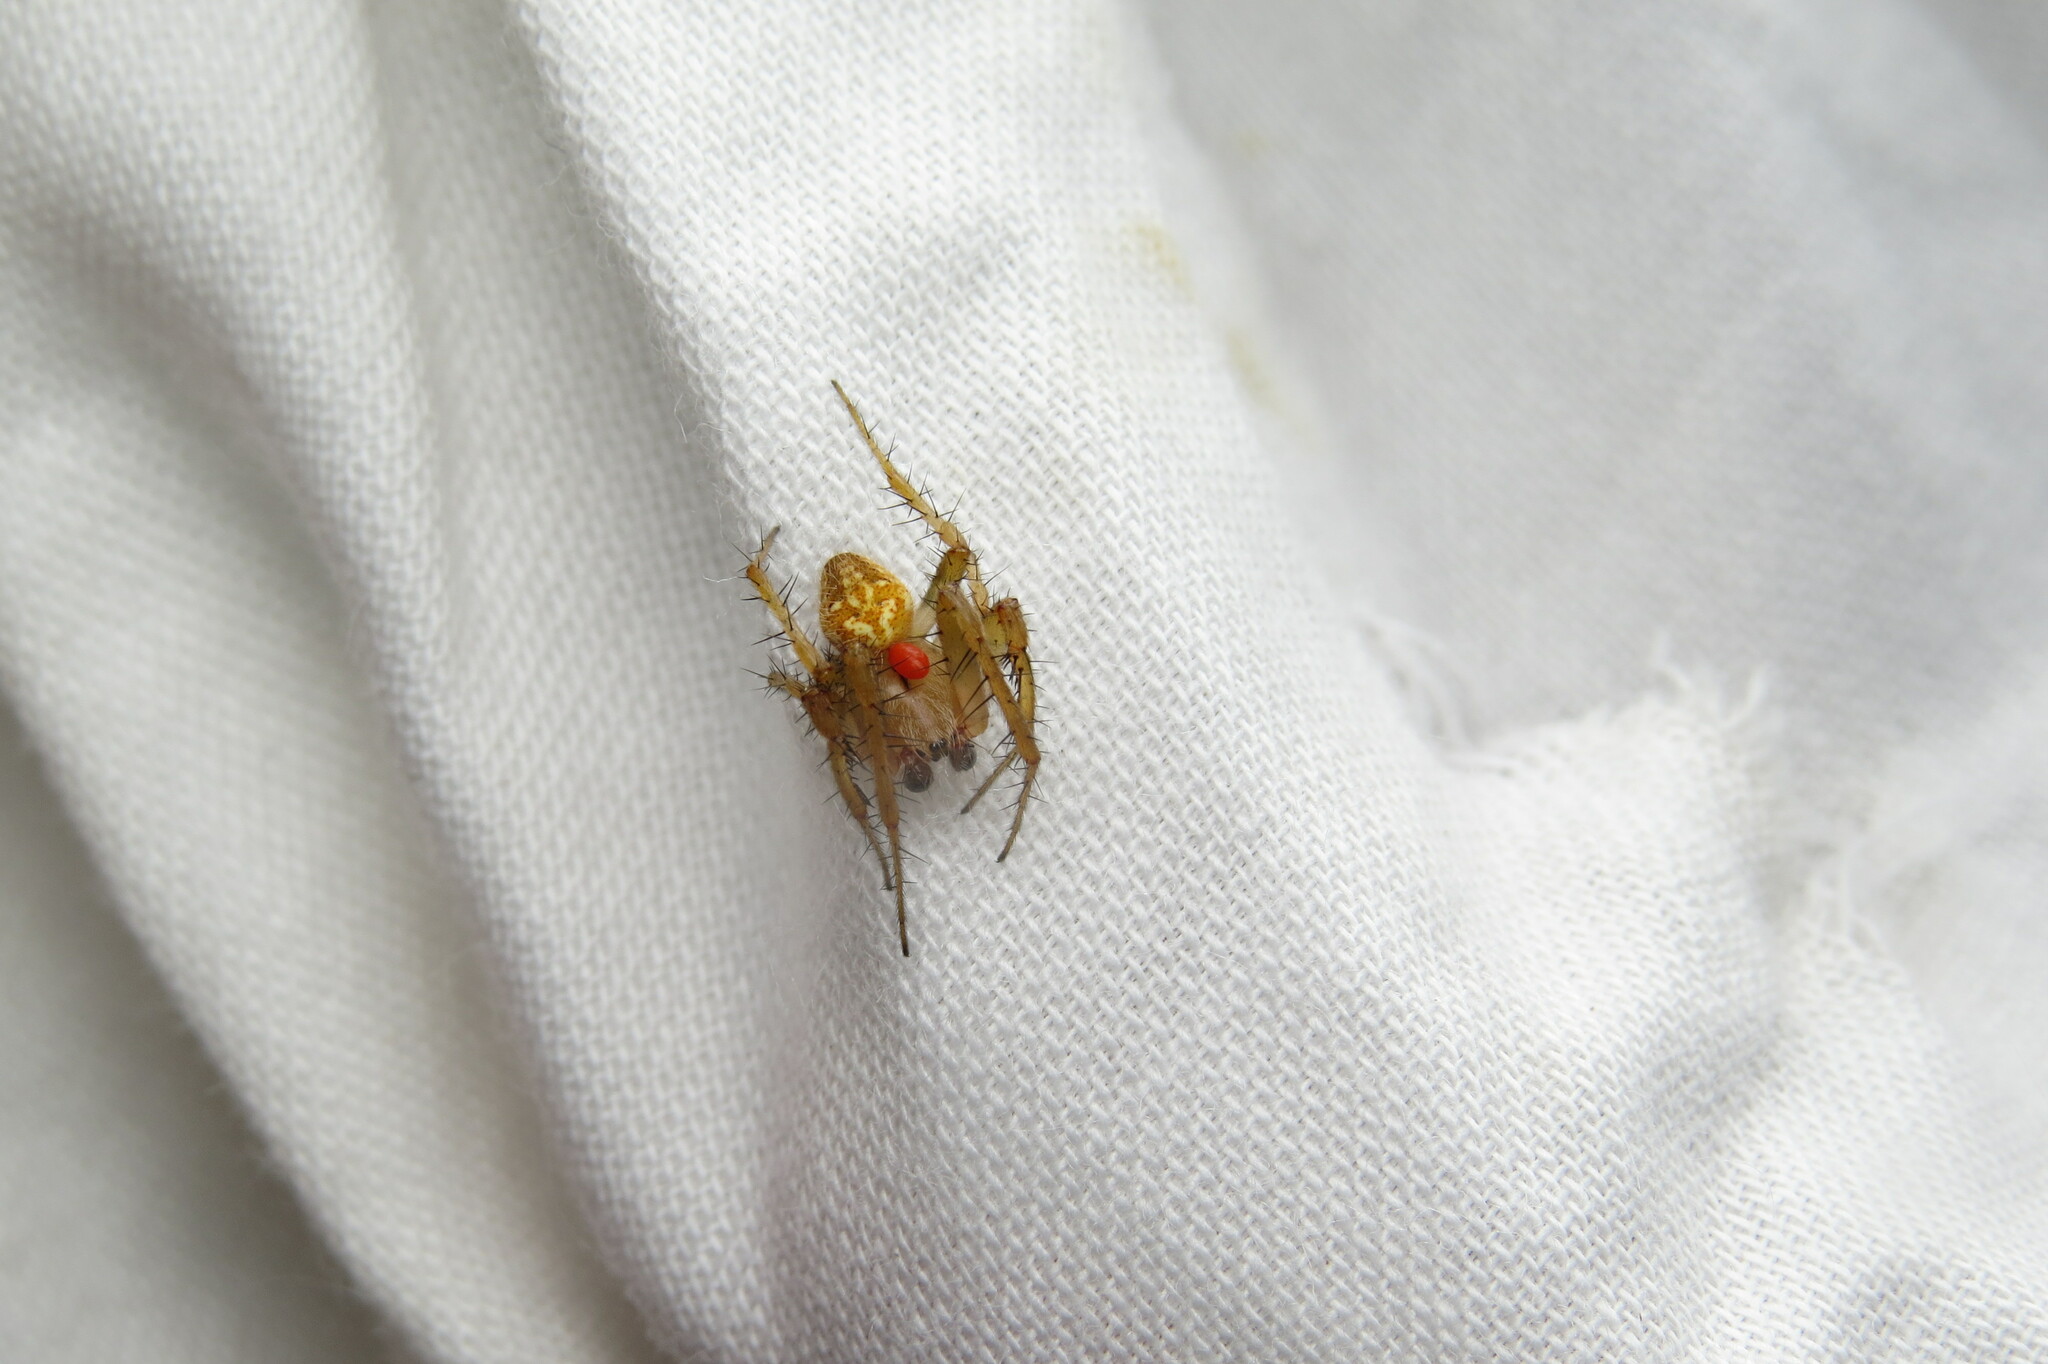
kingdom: Animalia
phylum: Arthropoda
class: Arachnida
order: Araneae
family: Araneidae
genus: Neoscona
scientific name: Neoscona arabesca
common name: Orb weavers
